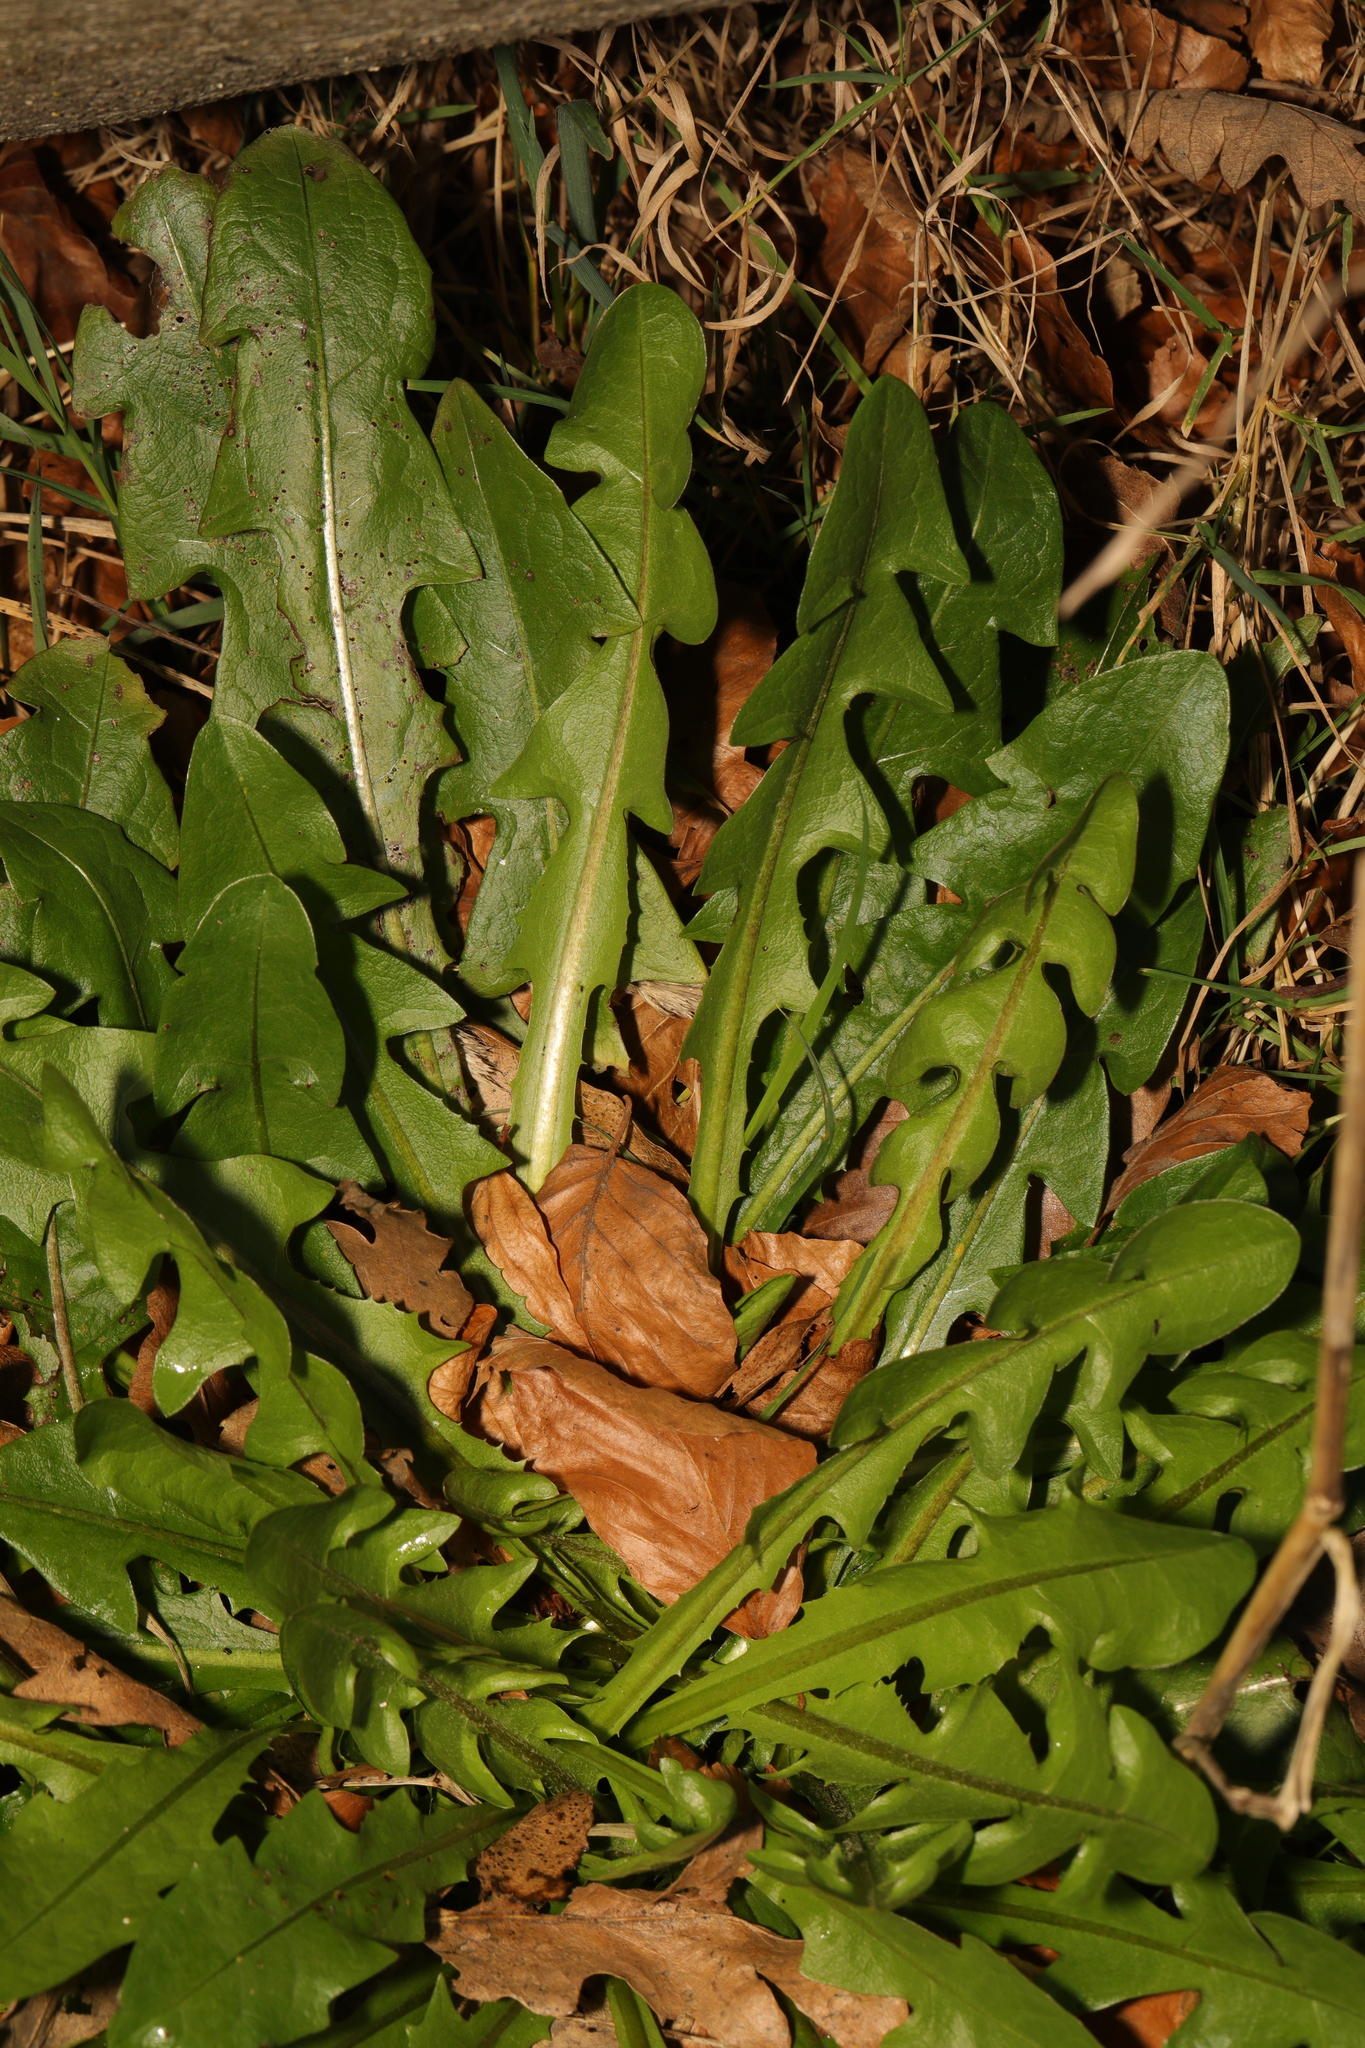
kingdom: Plantae
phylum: Tracheophyta
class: Magnoliopsida
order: Asterales
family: Asteraceae
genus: Taraxacum
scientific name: Taraxacum officinale
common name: Common dandelion
